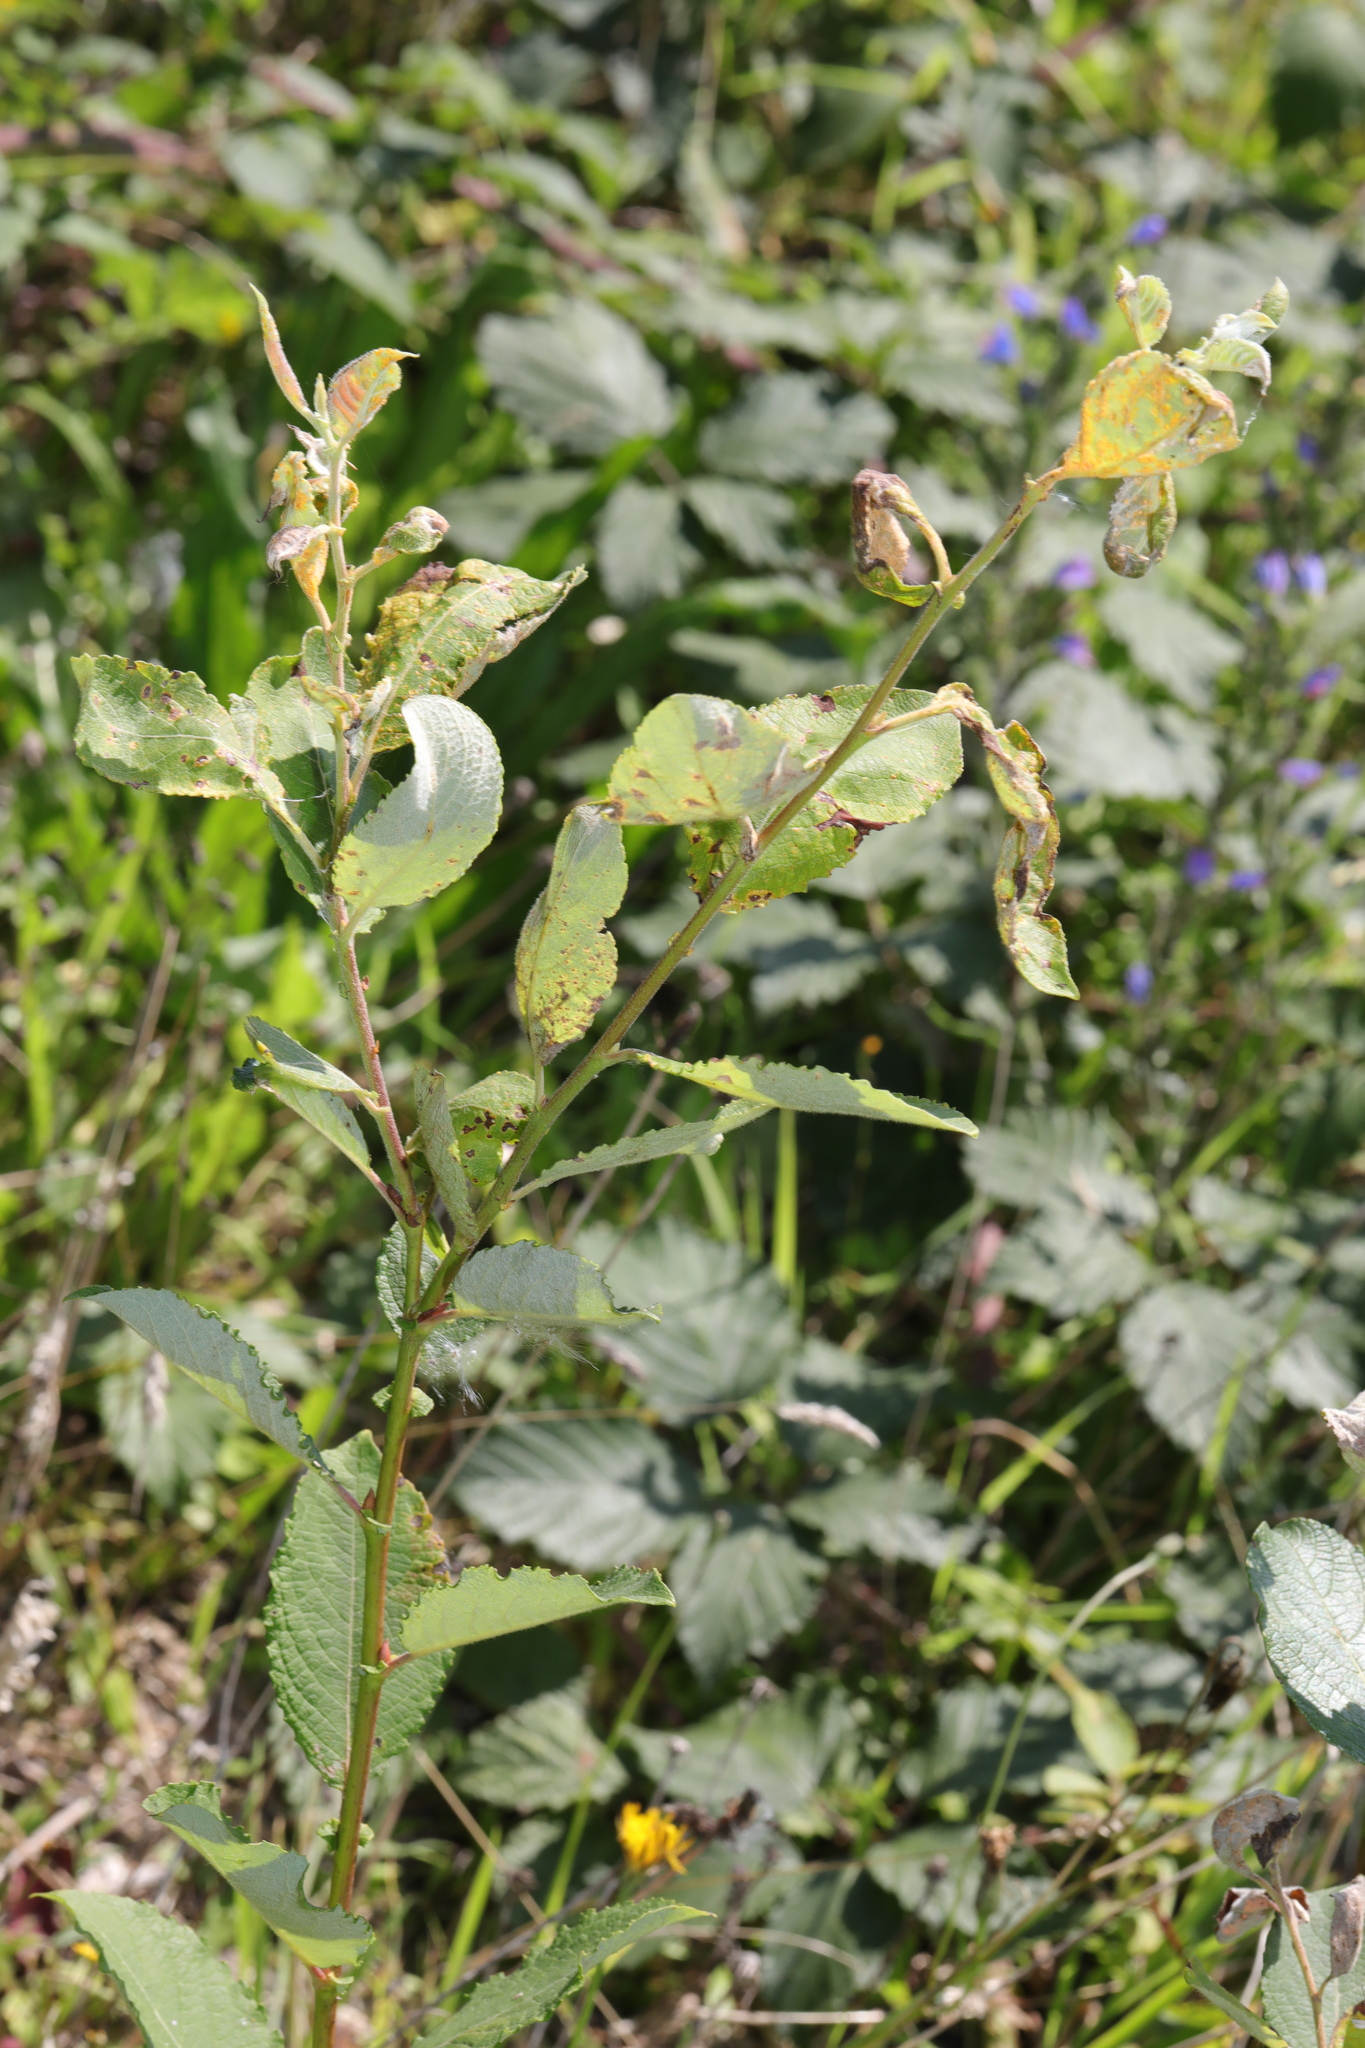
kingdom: Plantae
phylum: Tracheophyta
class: Magnoliopsida
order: Malpighiales
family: Salicaceae
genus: Salix
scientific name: Salix caprea
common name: Goat willow
